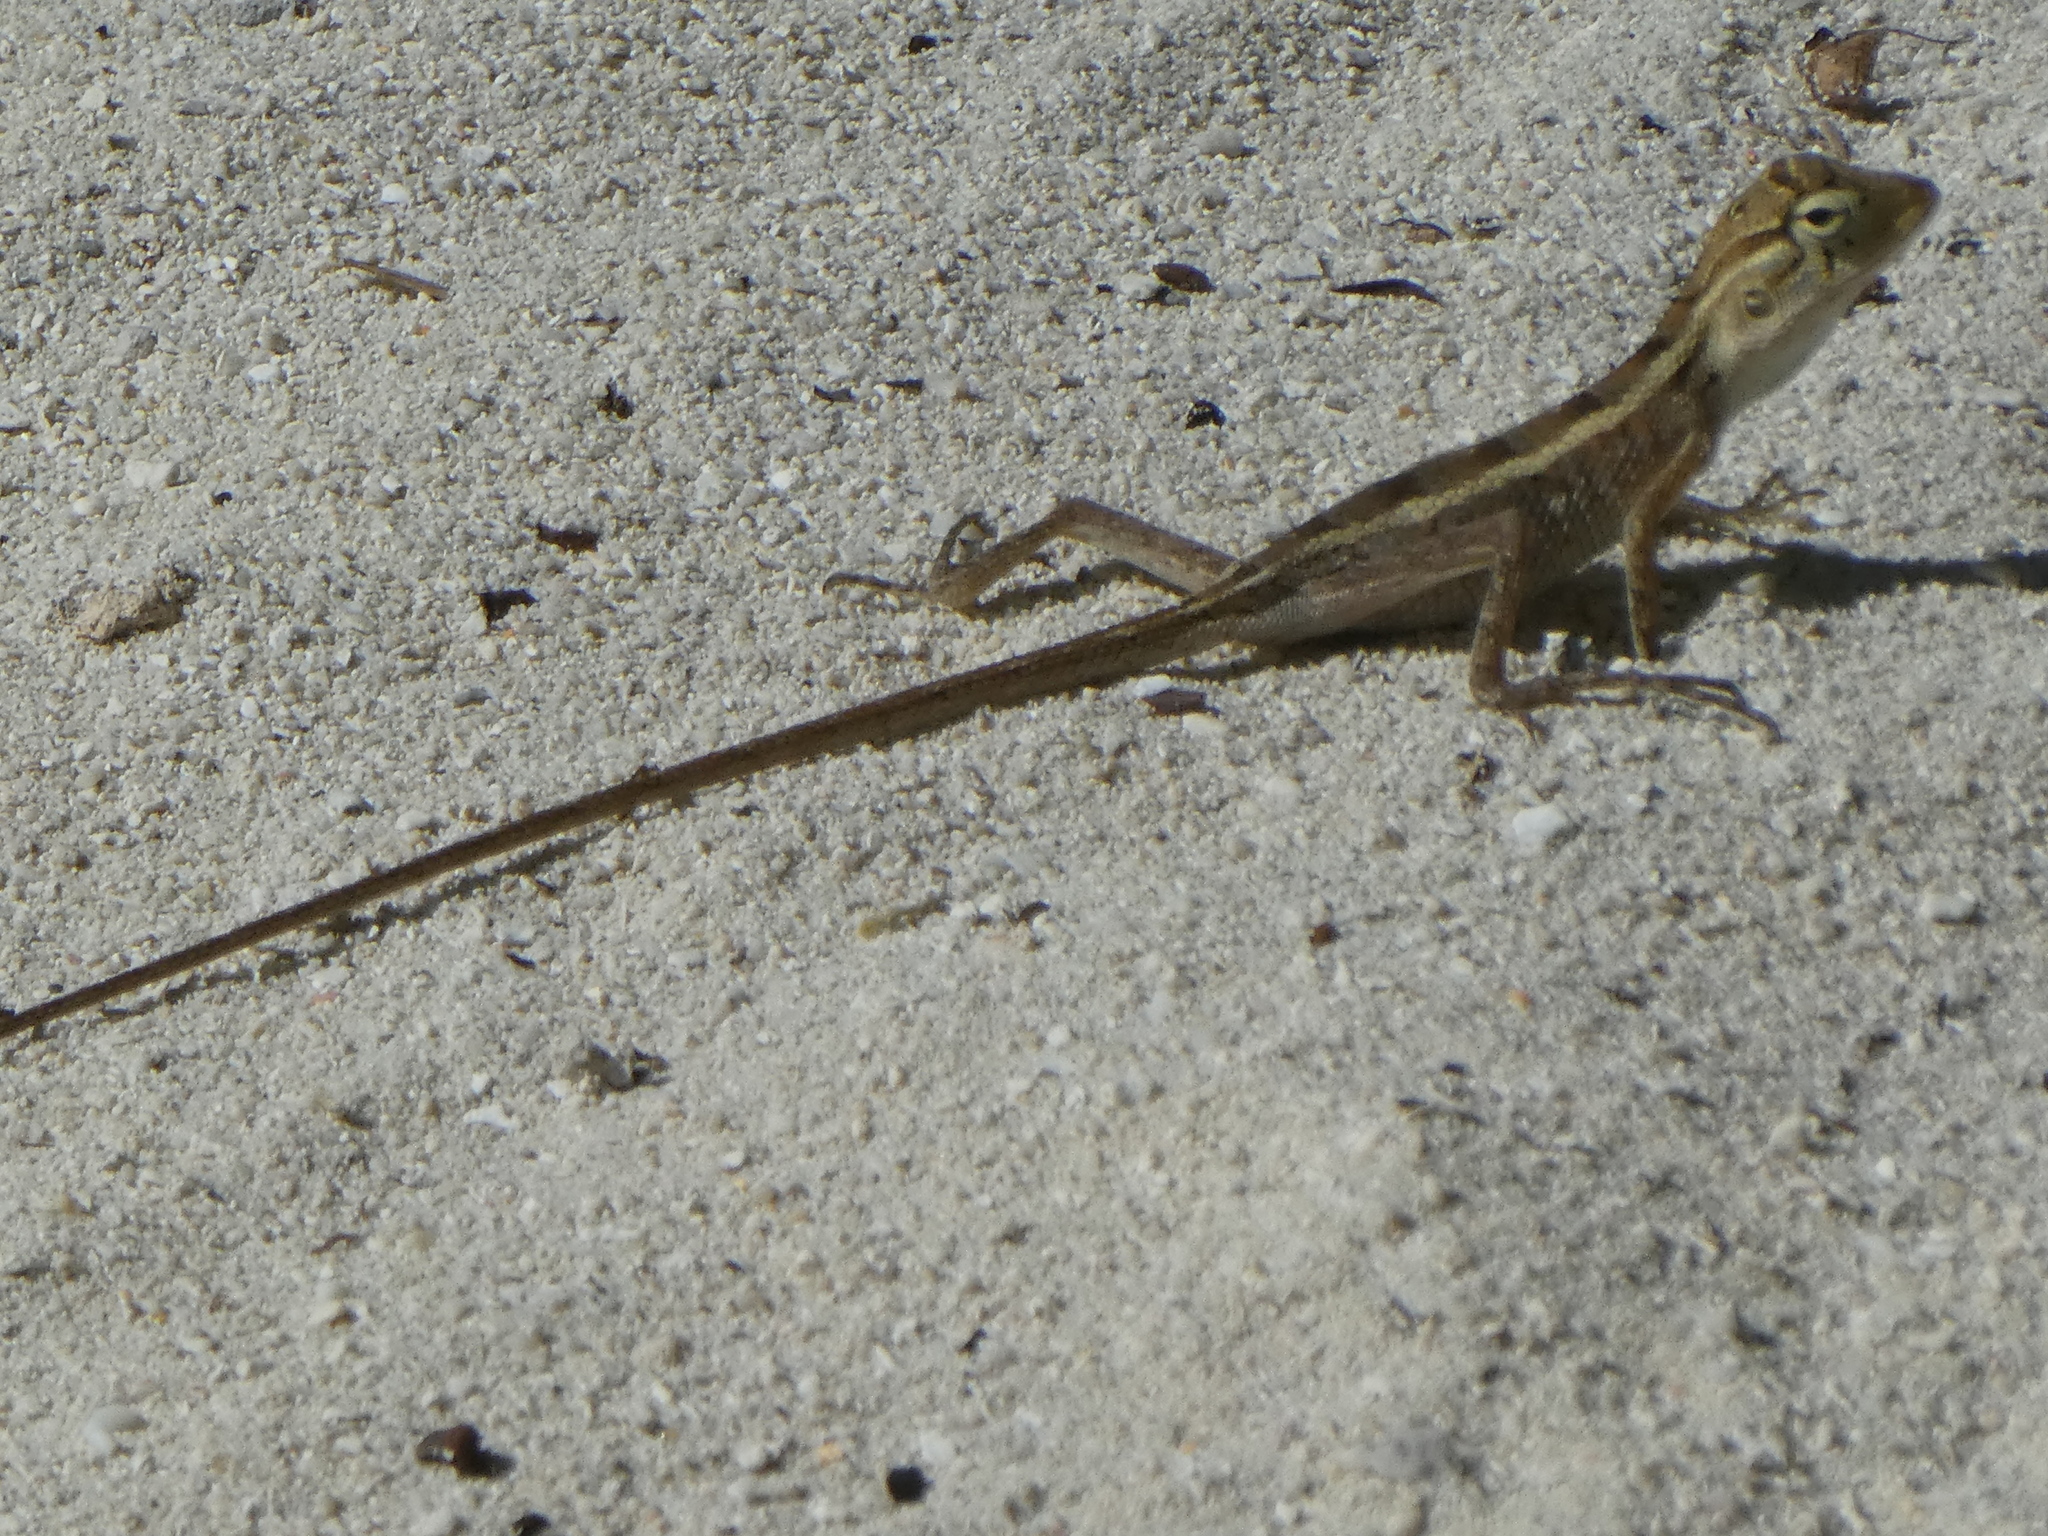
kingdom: Animalia
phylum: Chordata
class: Squamata
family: Agamidae
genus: Calotes
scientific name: Calotes versicolor
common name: Oriental garden lizard
